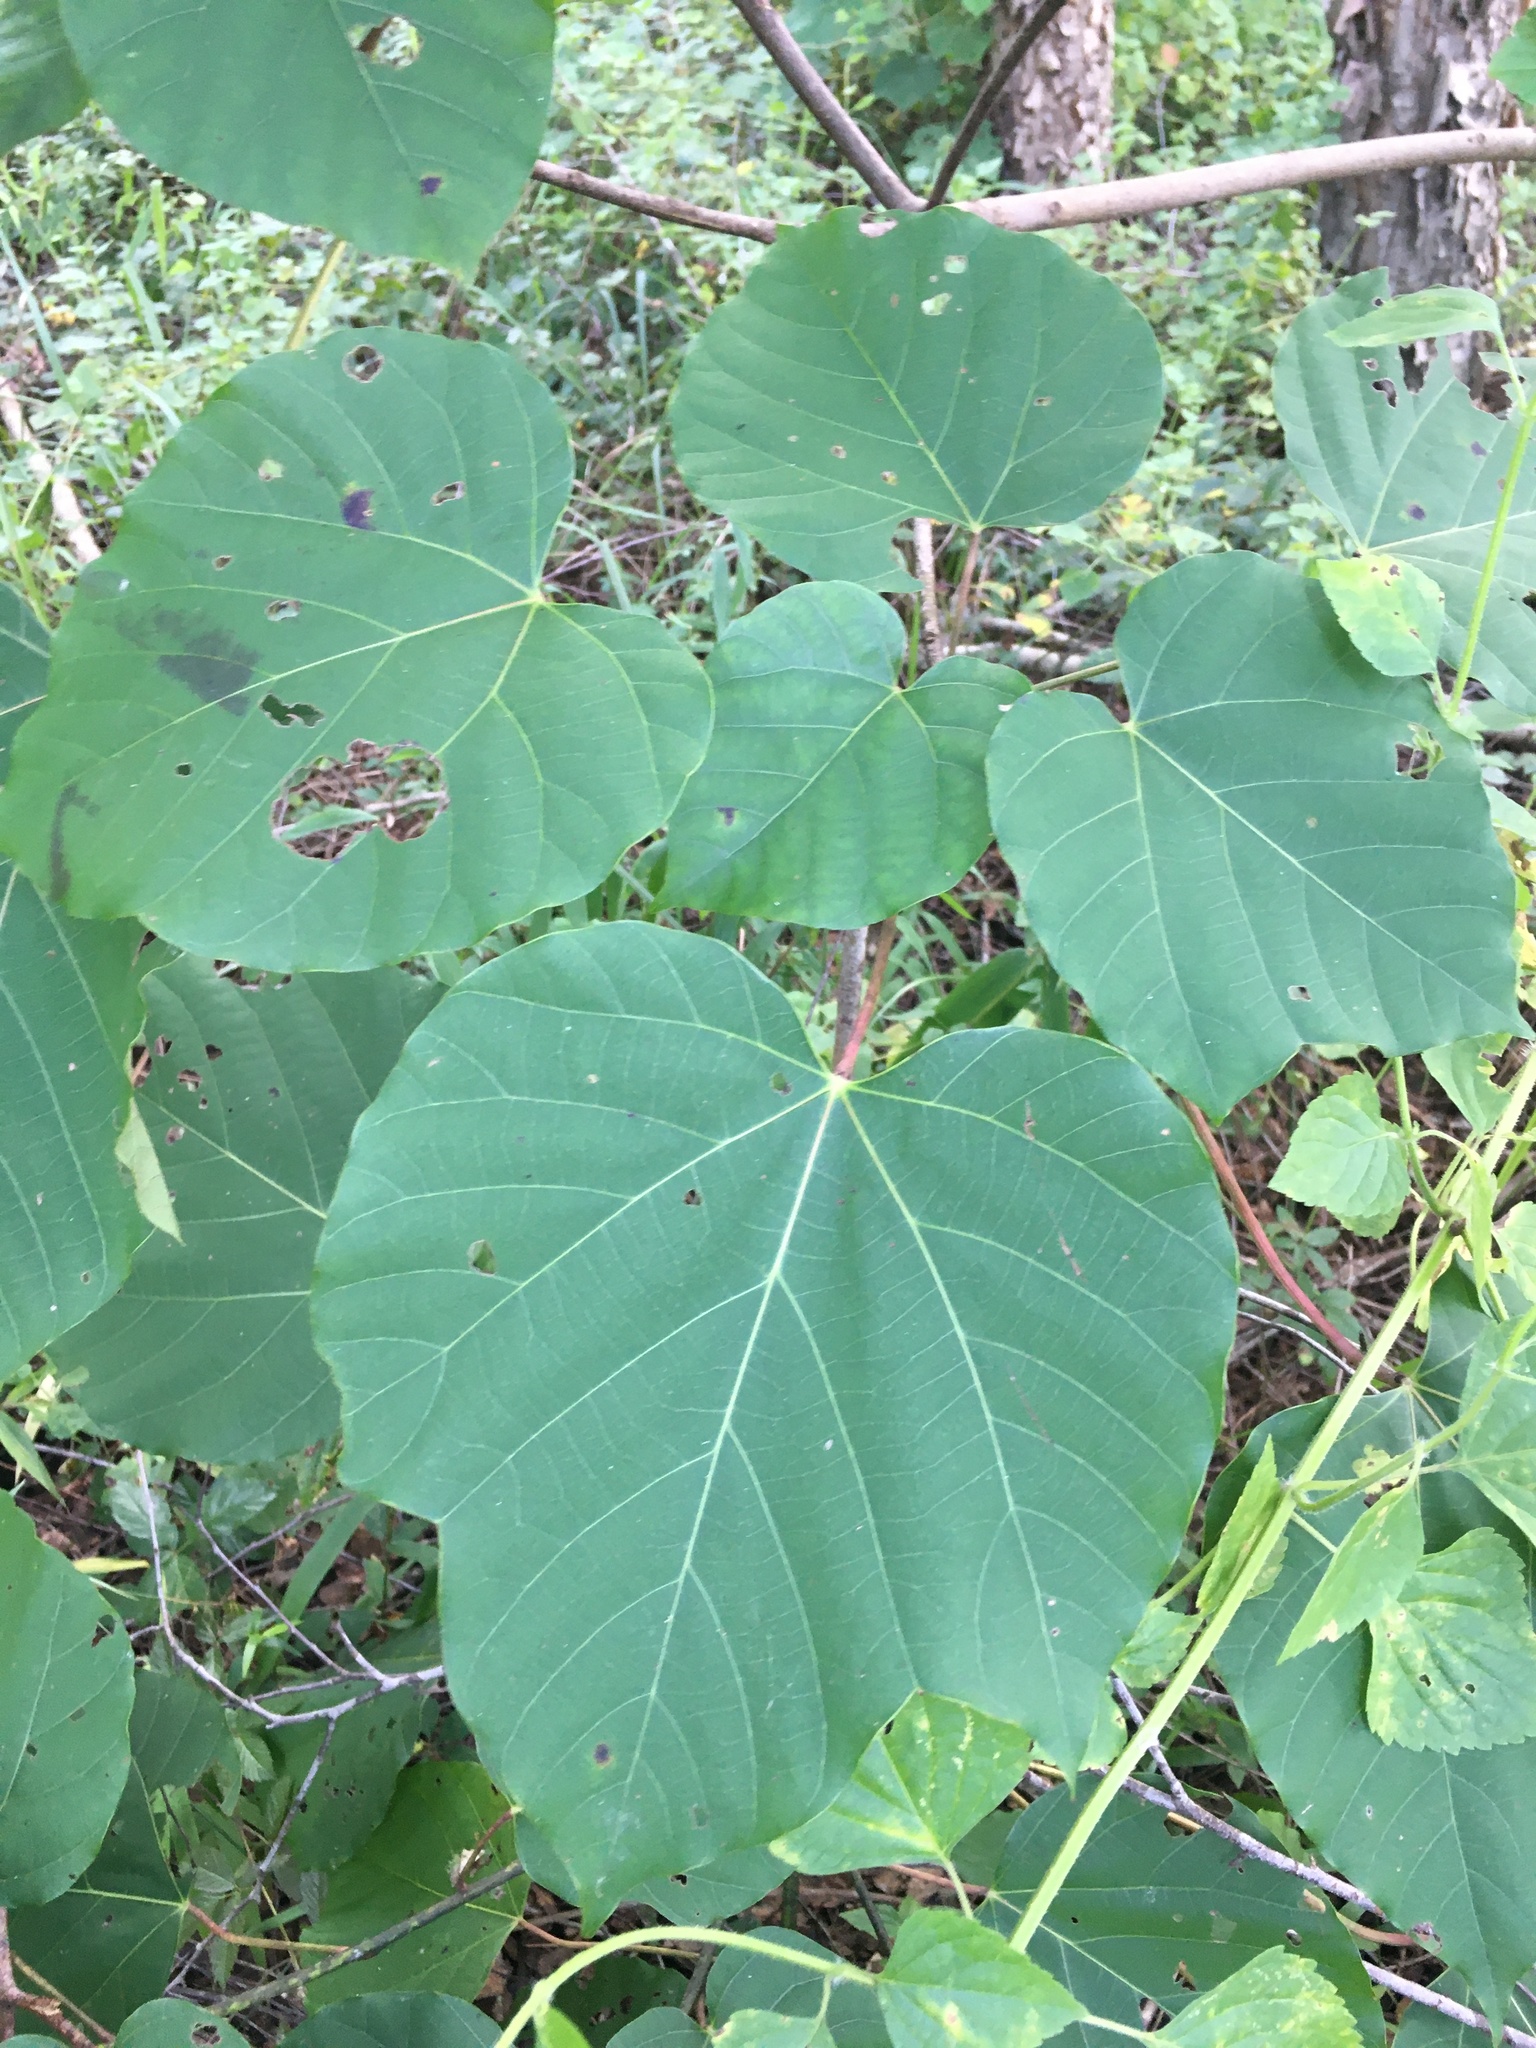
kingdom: Plantae
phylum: Tracheophyta
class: Magnoliopsida
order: Malpighiales
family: Euphorbiaceae
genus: Vernicia
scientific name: Vernicia fordii
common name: Tungoil tree
